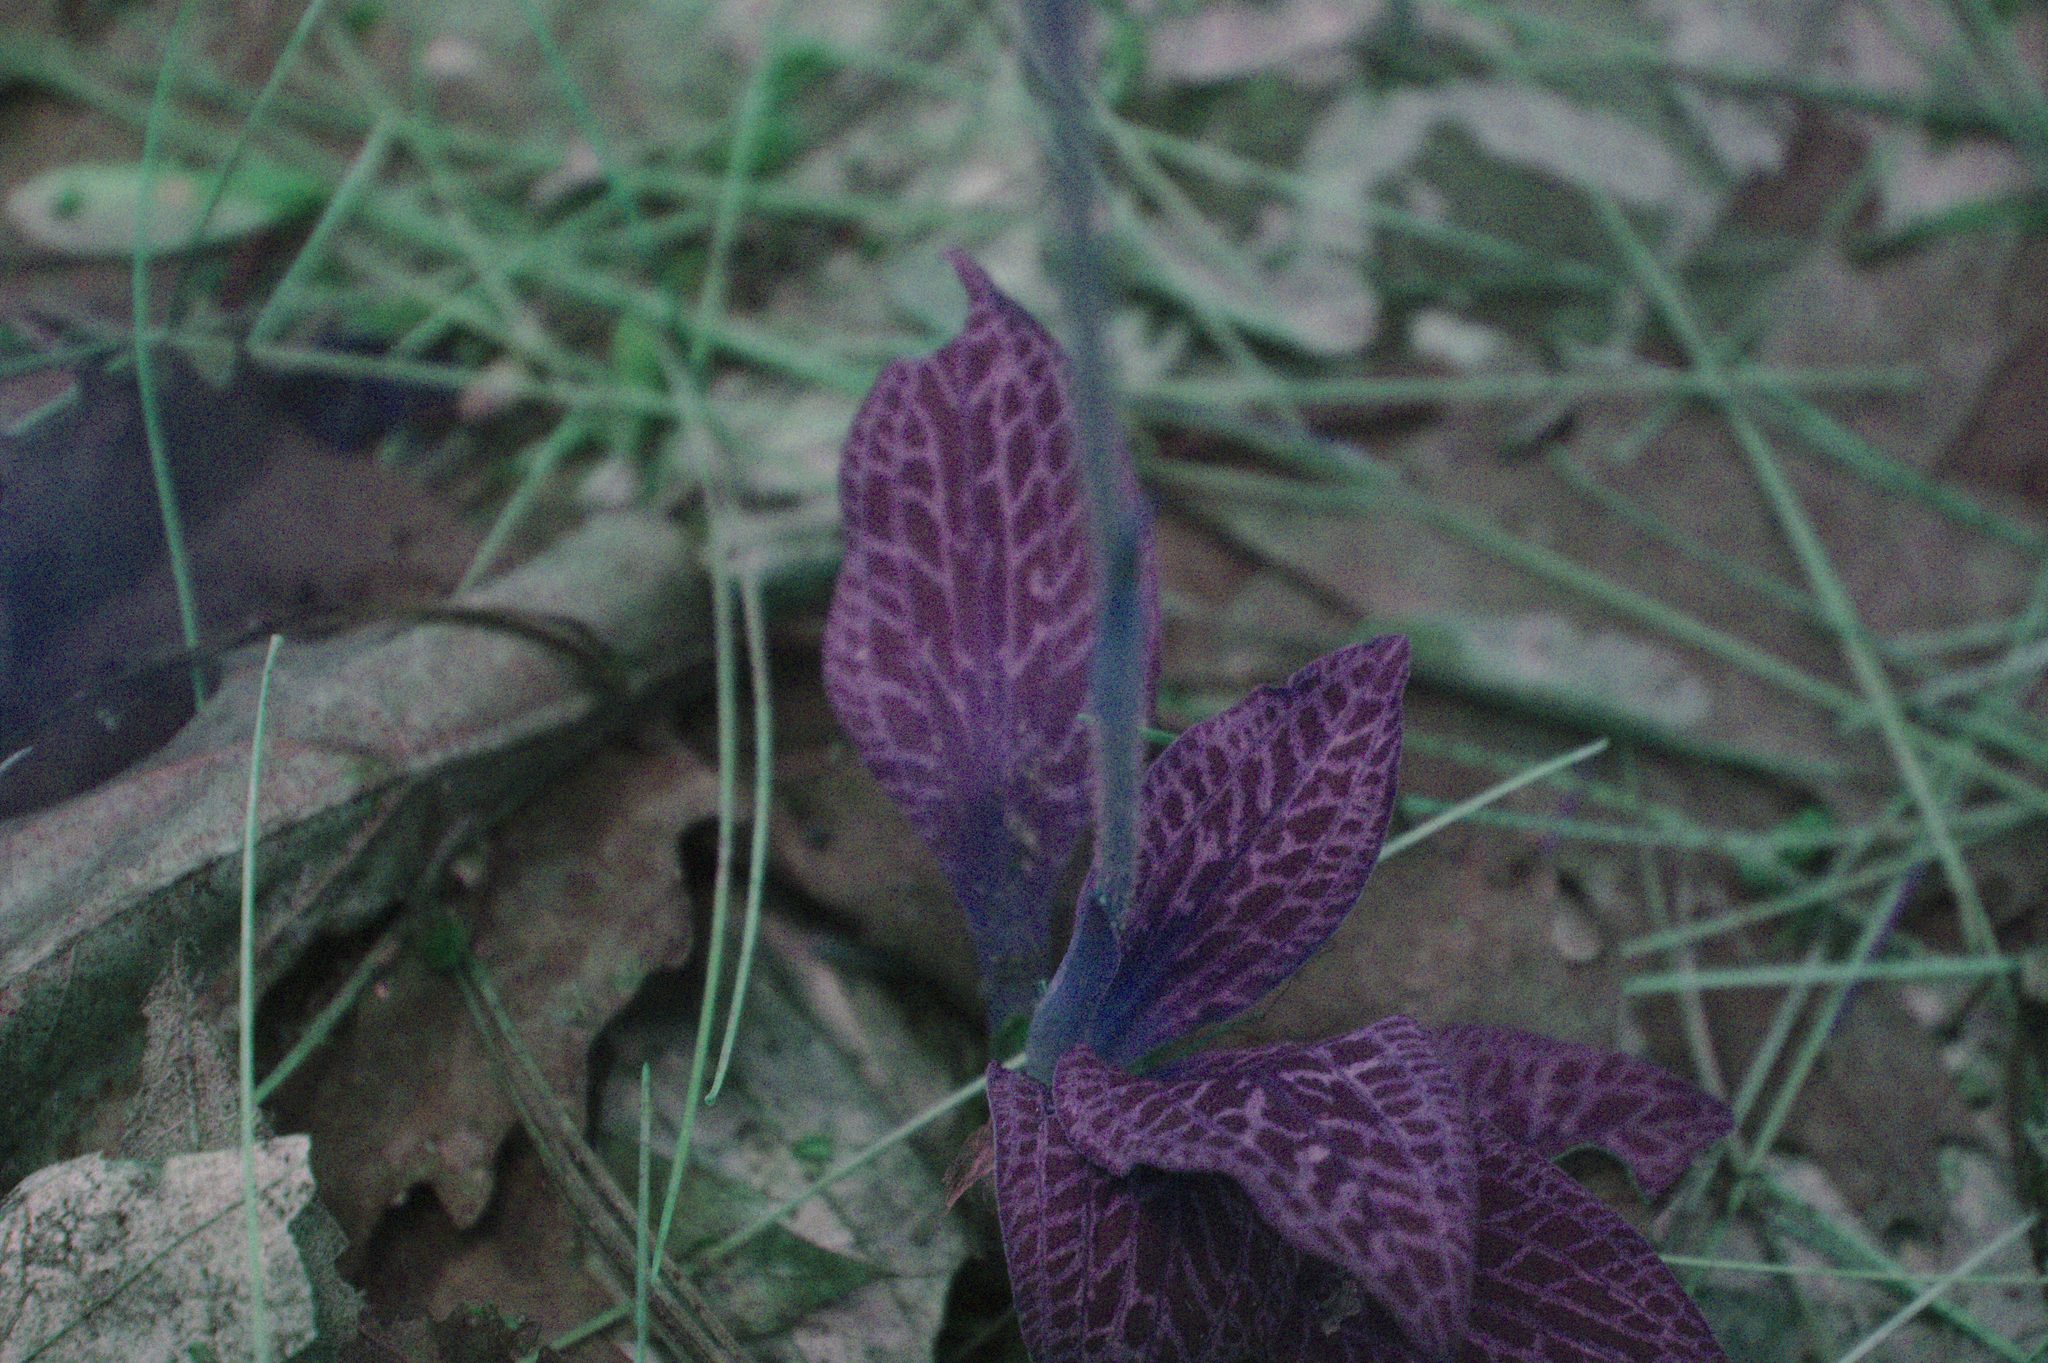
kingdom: Plantae
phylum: Tracheophyta
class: Liliopsida
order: Asparagales
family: Orchidaceae
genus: Goodyera
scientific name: Goodyera tesselata
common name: Checkered rattlesnake-plantain
